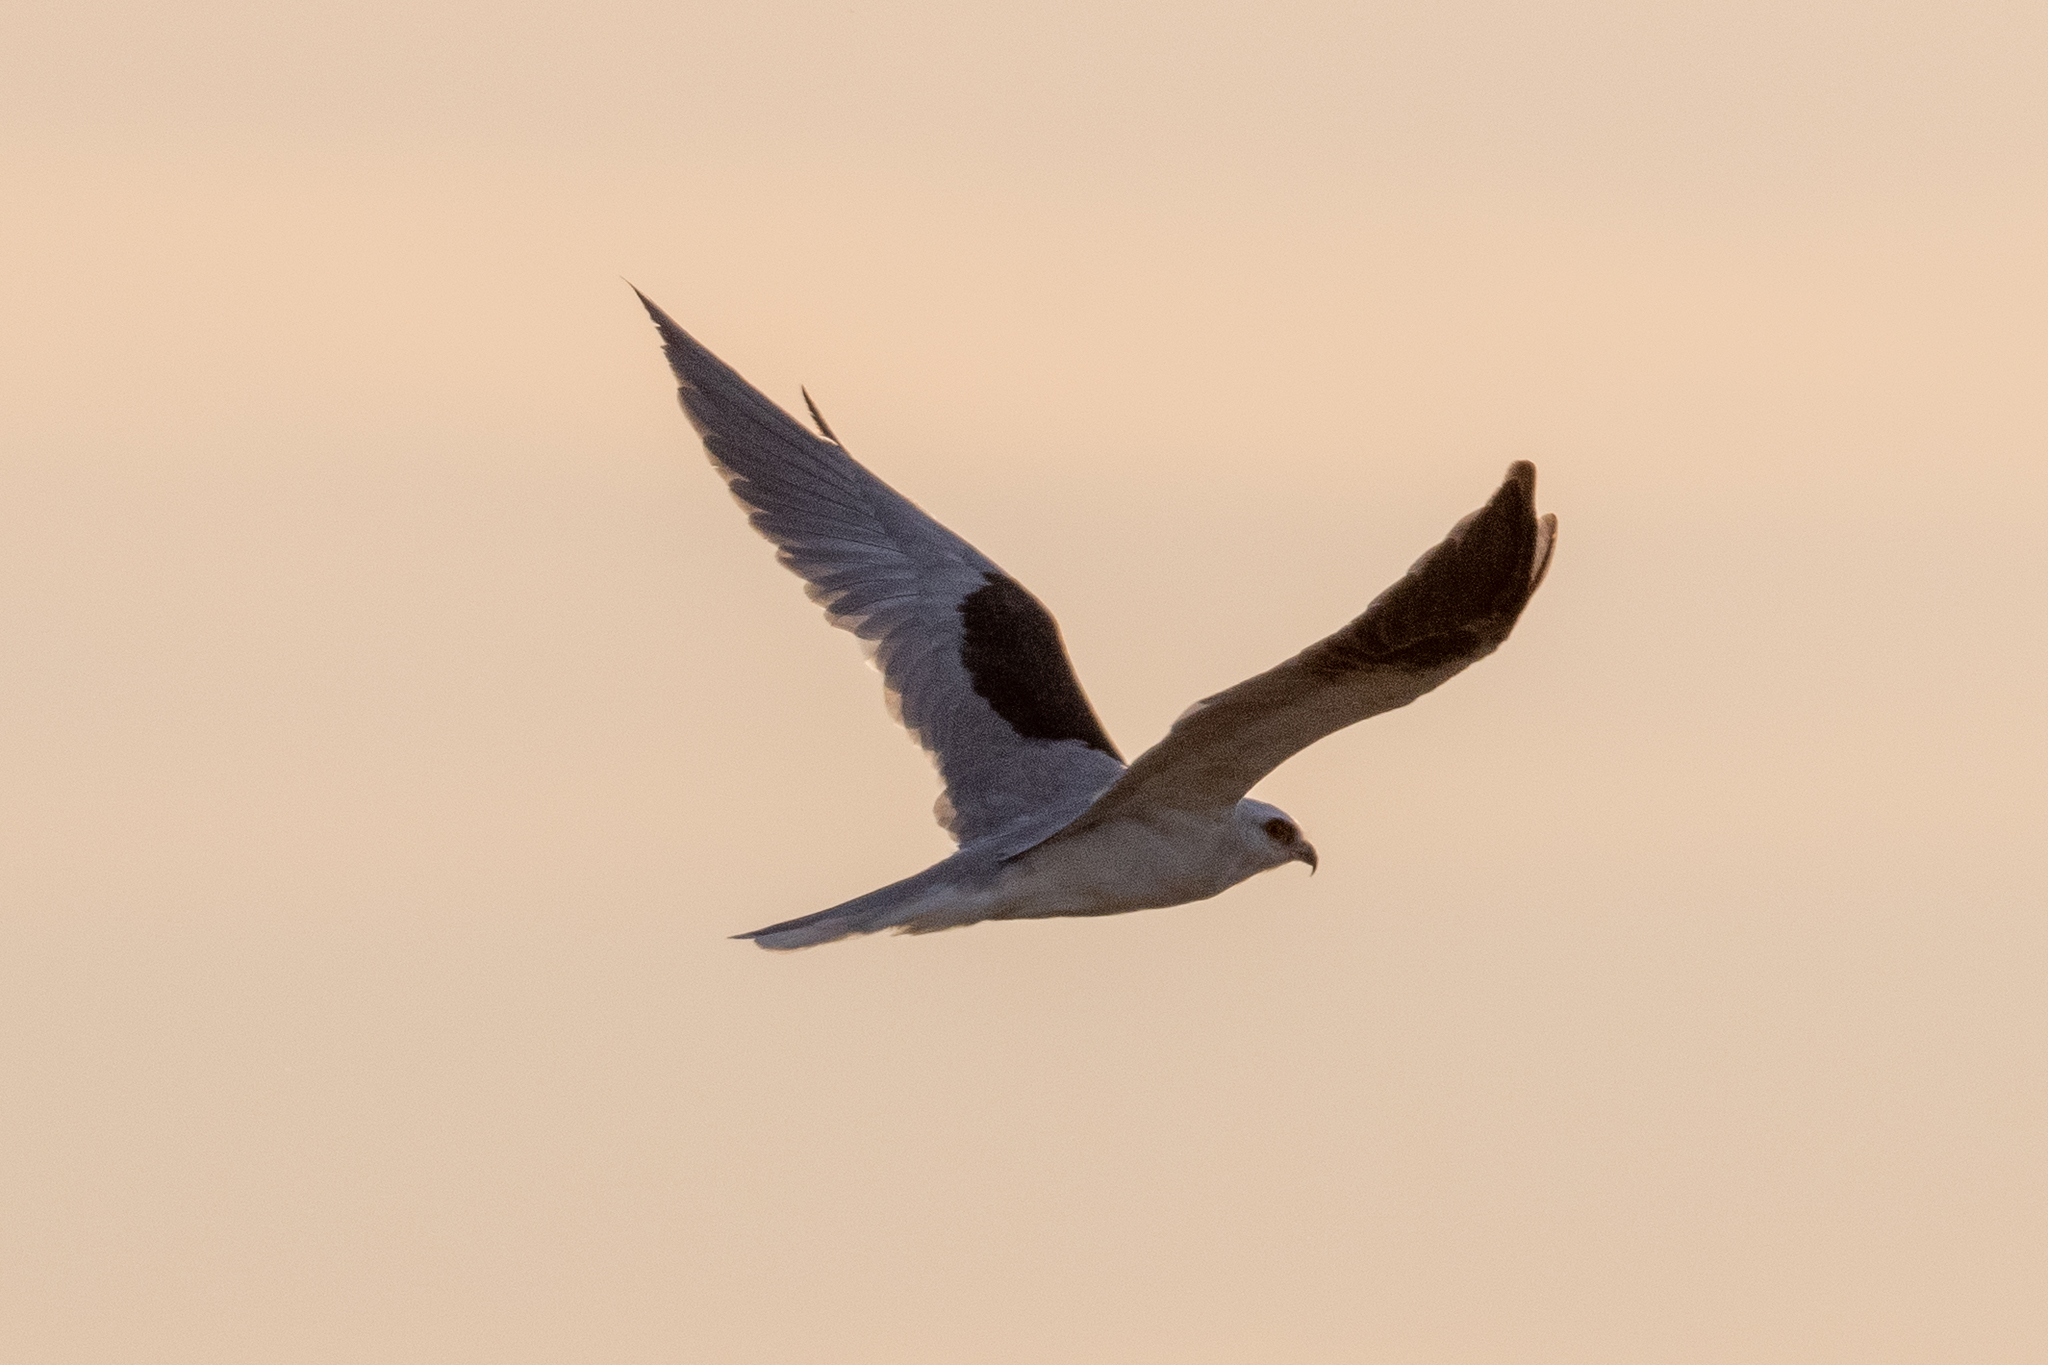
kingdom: Animalia
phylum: Chordata
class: Aves
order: Accipitriformes
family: Accipitridae
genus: Elanus
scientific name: Elanus leucurus
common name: White-tailed kite
